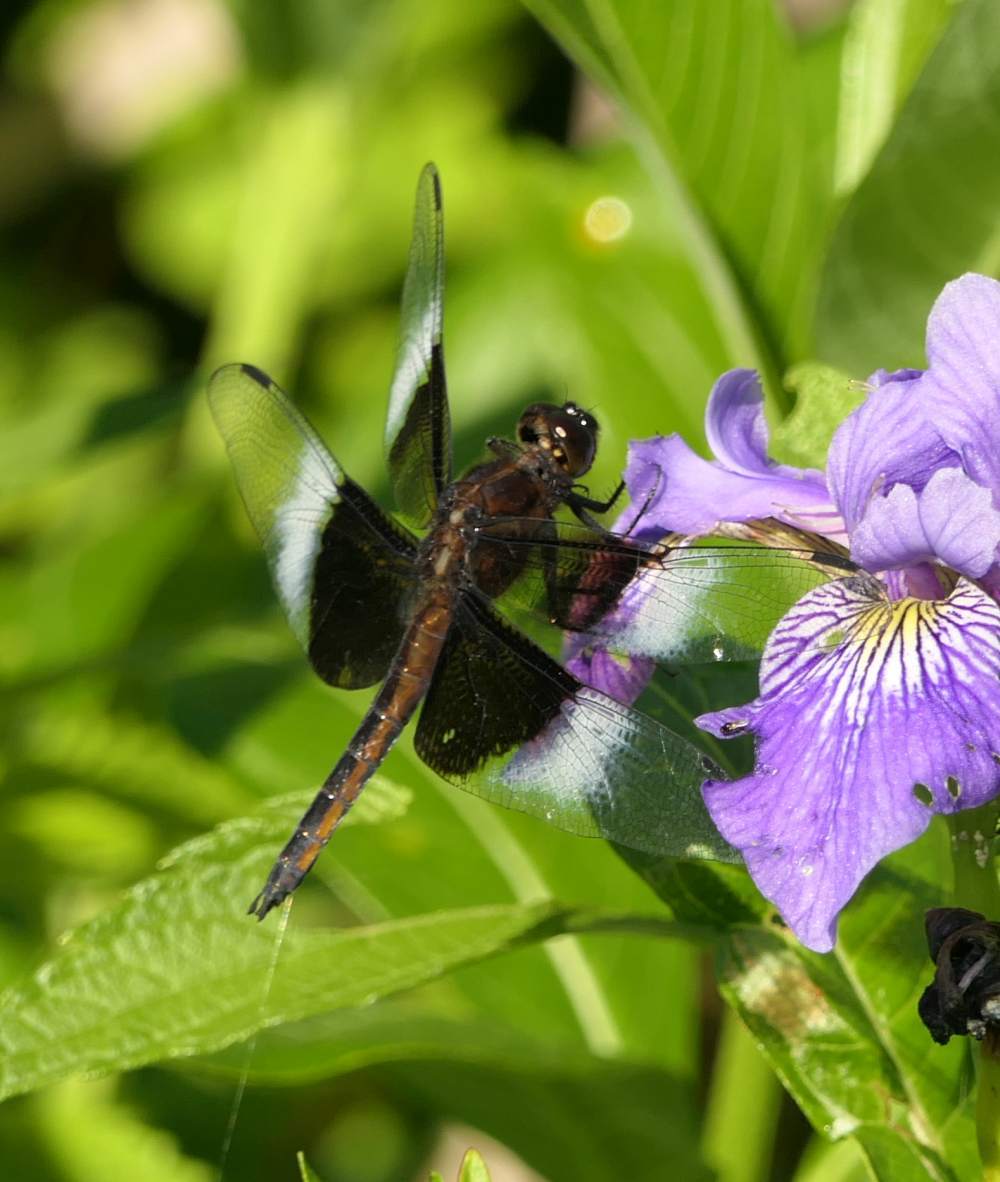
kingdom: Animalia
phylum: Arthropoda
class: Insecta
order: Odonata
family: Libellulidae
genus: Libellula
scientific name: Libellula luctuosa
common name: Widow skimmer
